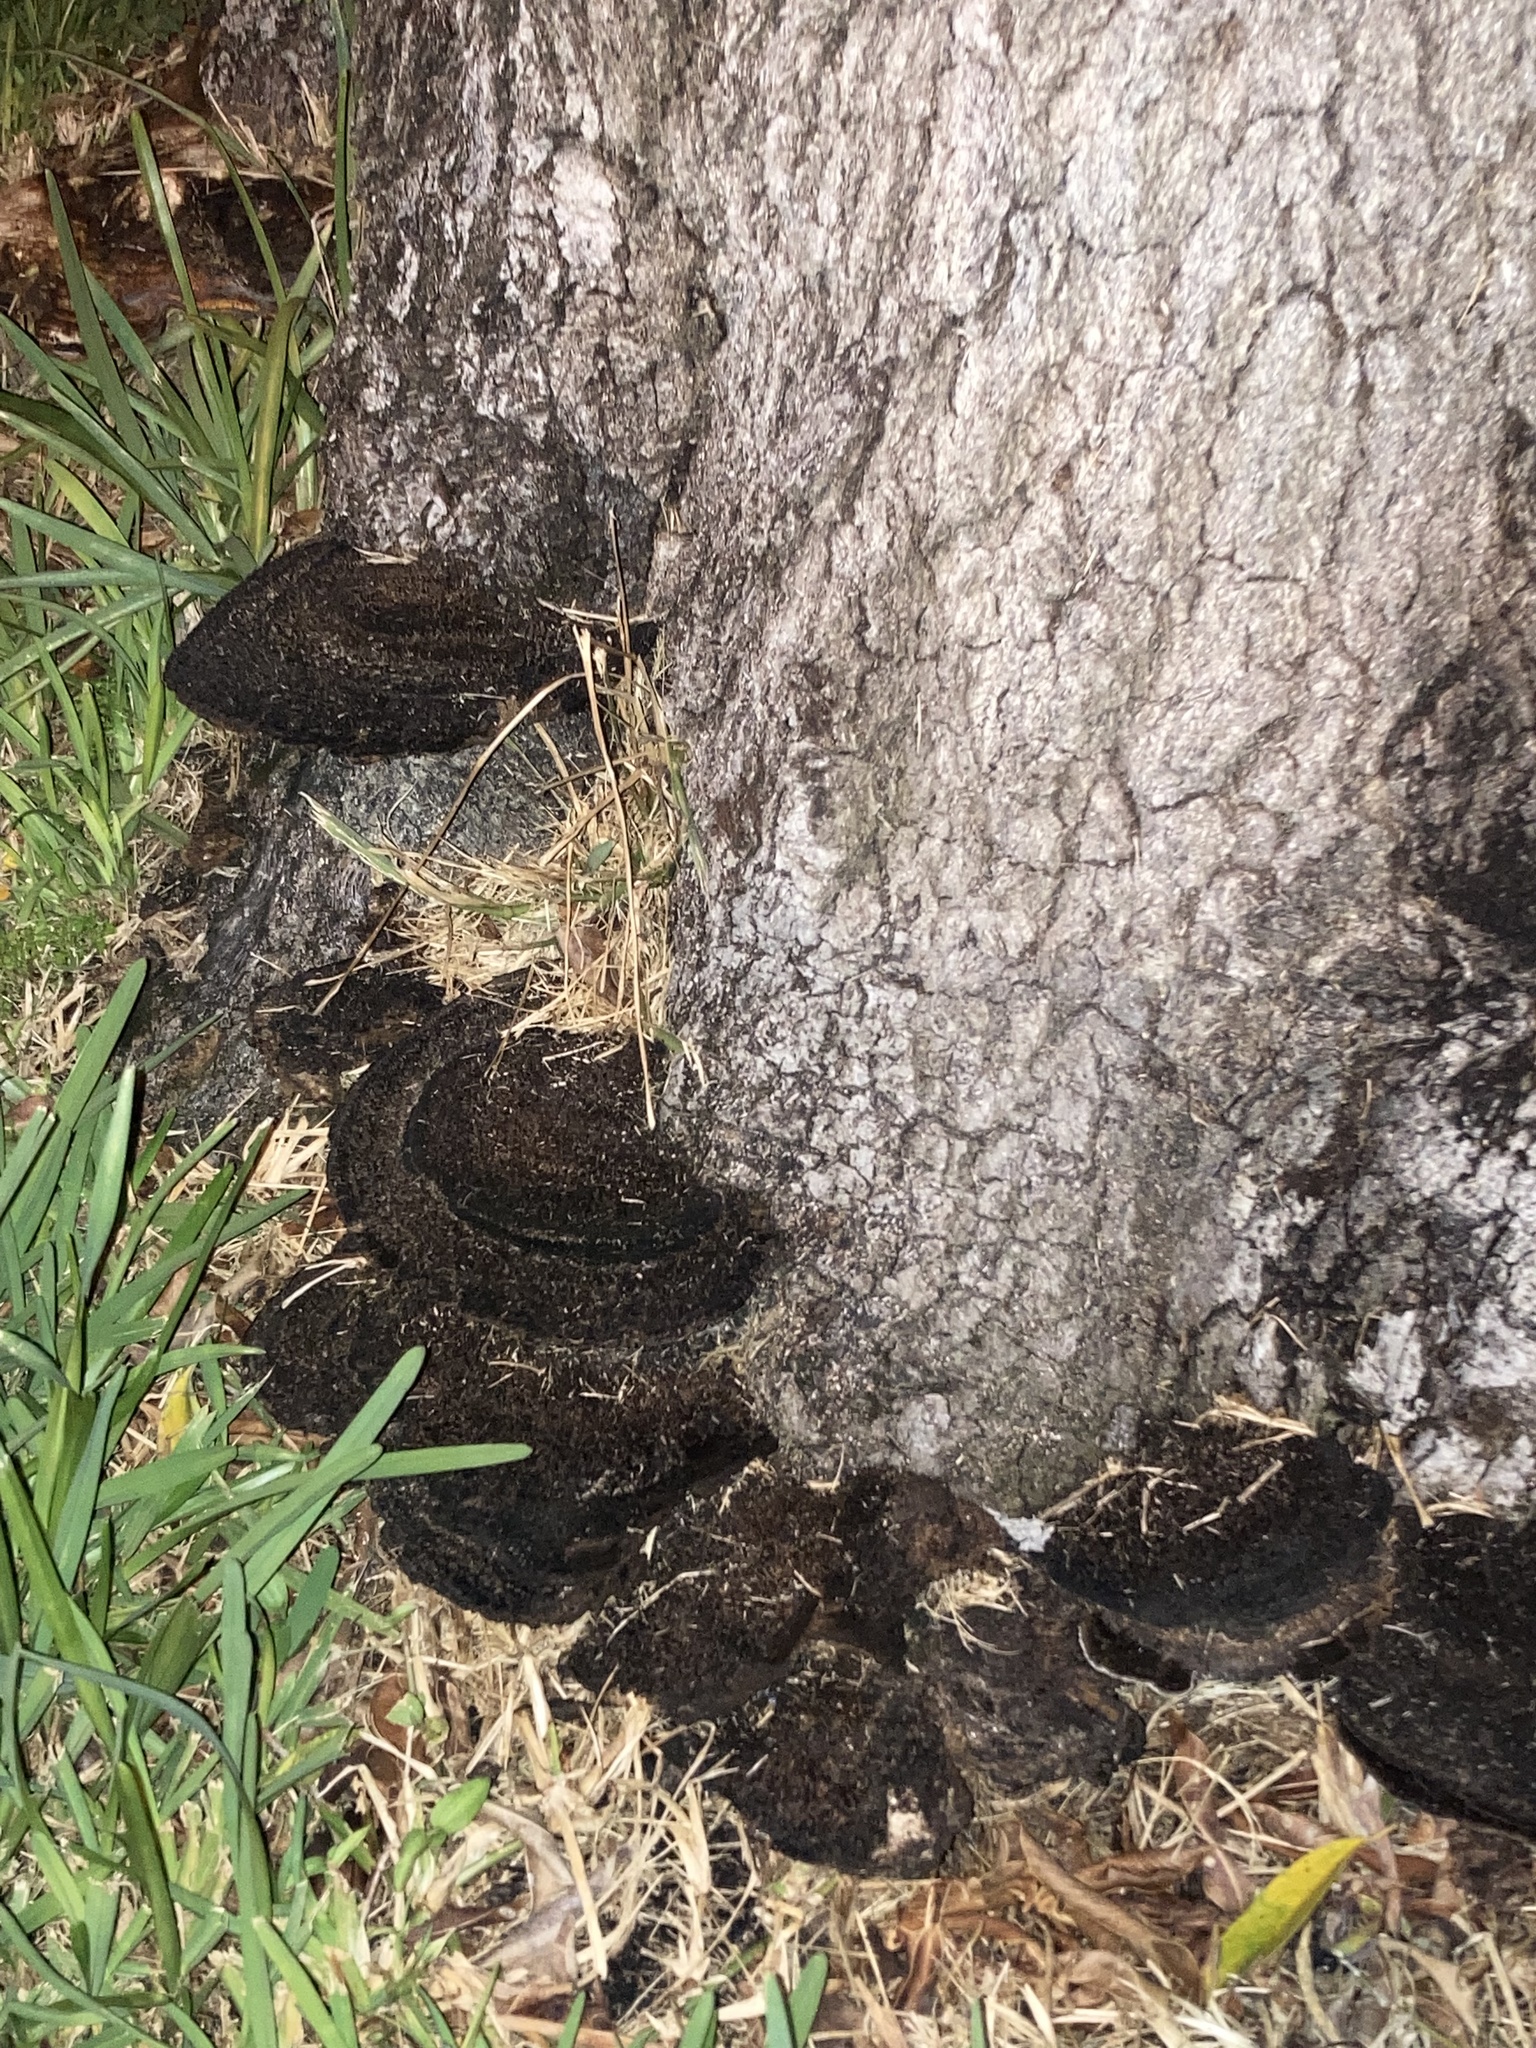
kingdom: Fungi
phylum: Basidiomycota
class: Agaricomycetes
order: Polyporales
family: Cerrenaceae
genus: Cerrena
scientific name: Cerrena hydnoides
